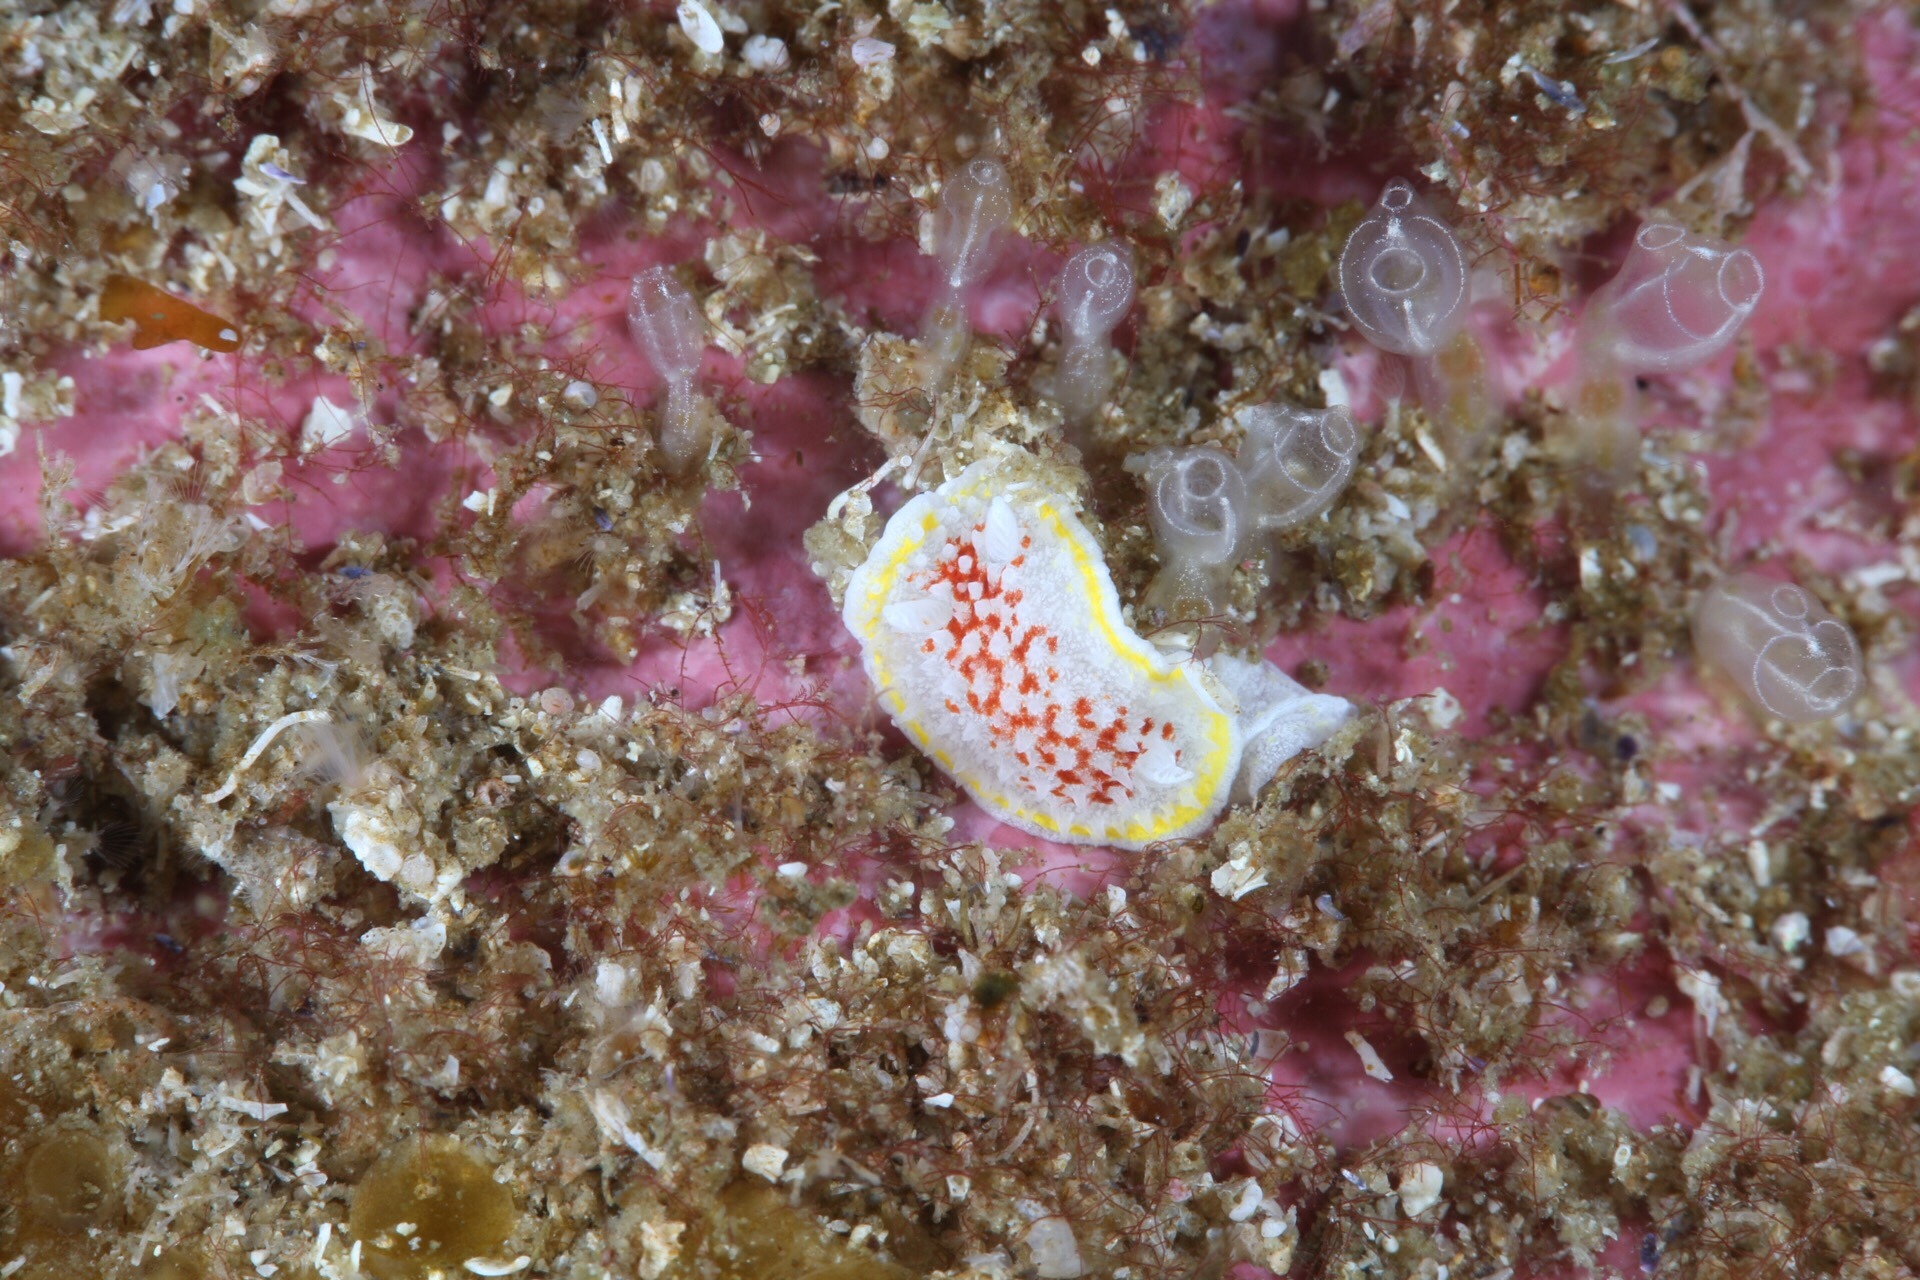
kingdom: Animalia
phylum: Mollusca
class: Gastropoda
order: Nudibranchia
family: Calycidorididae
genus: Diaphorodoris
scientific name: Diaphorodoris luteocincta
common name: Fried egg nudibranch
